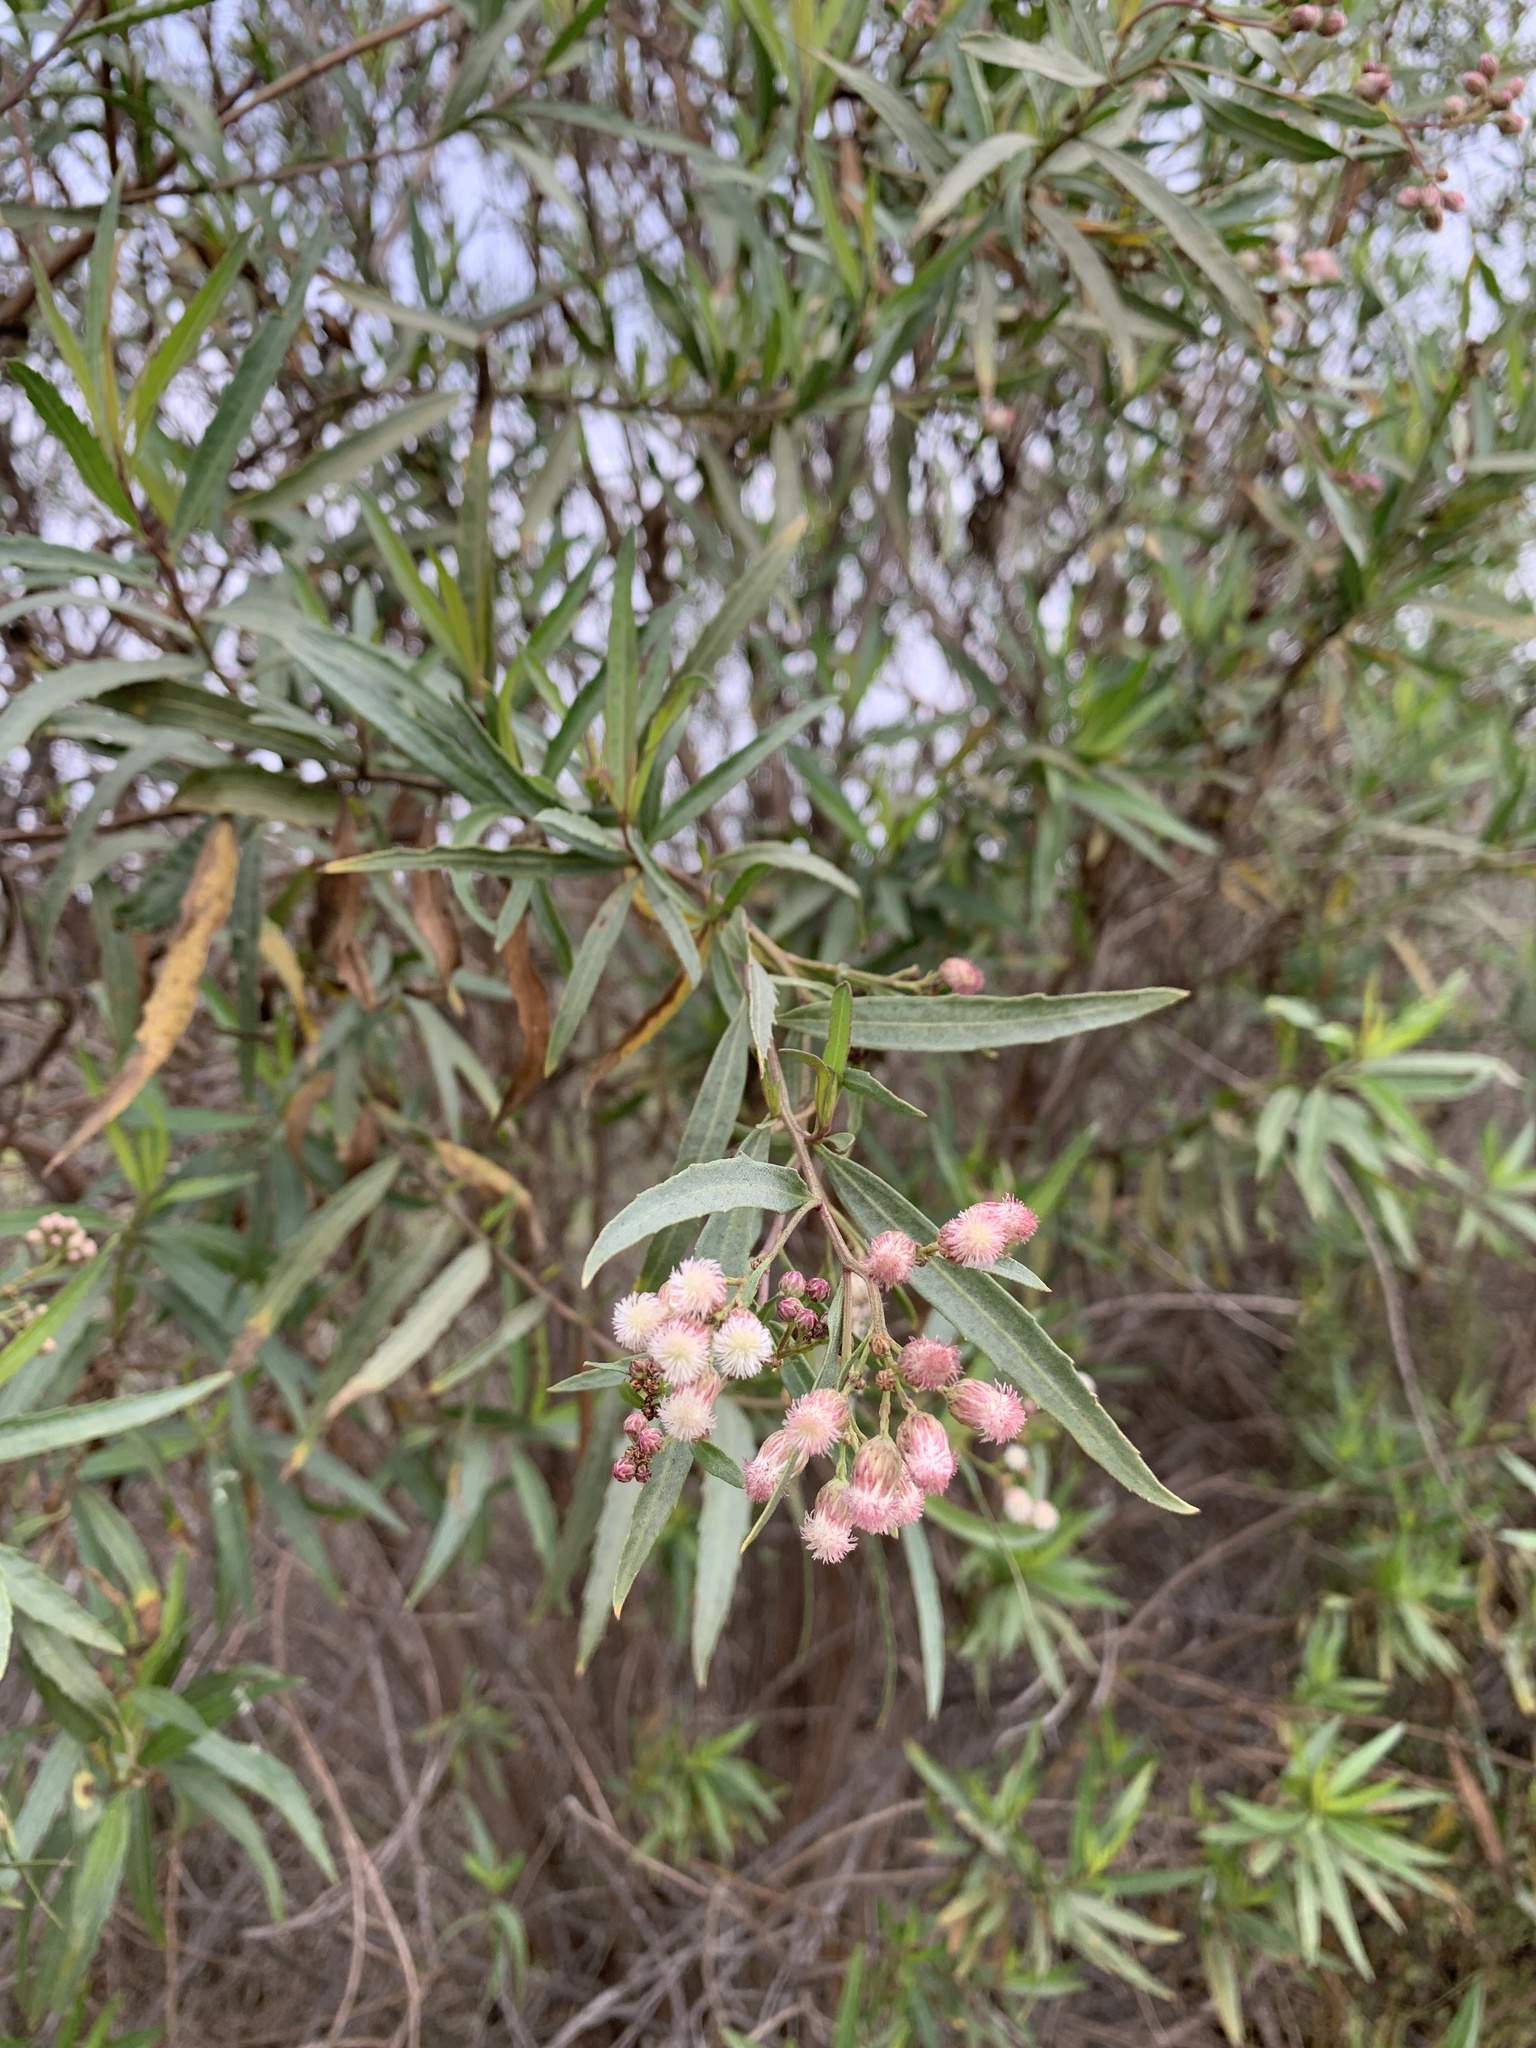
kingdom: Plantae
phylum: Tracheophyta
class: Magnoliopsida
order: Asterales
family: Asteraceae
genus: Baccharis
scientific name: Baccharis salicifolia
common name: Sticky baccharis
